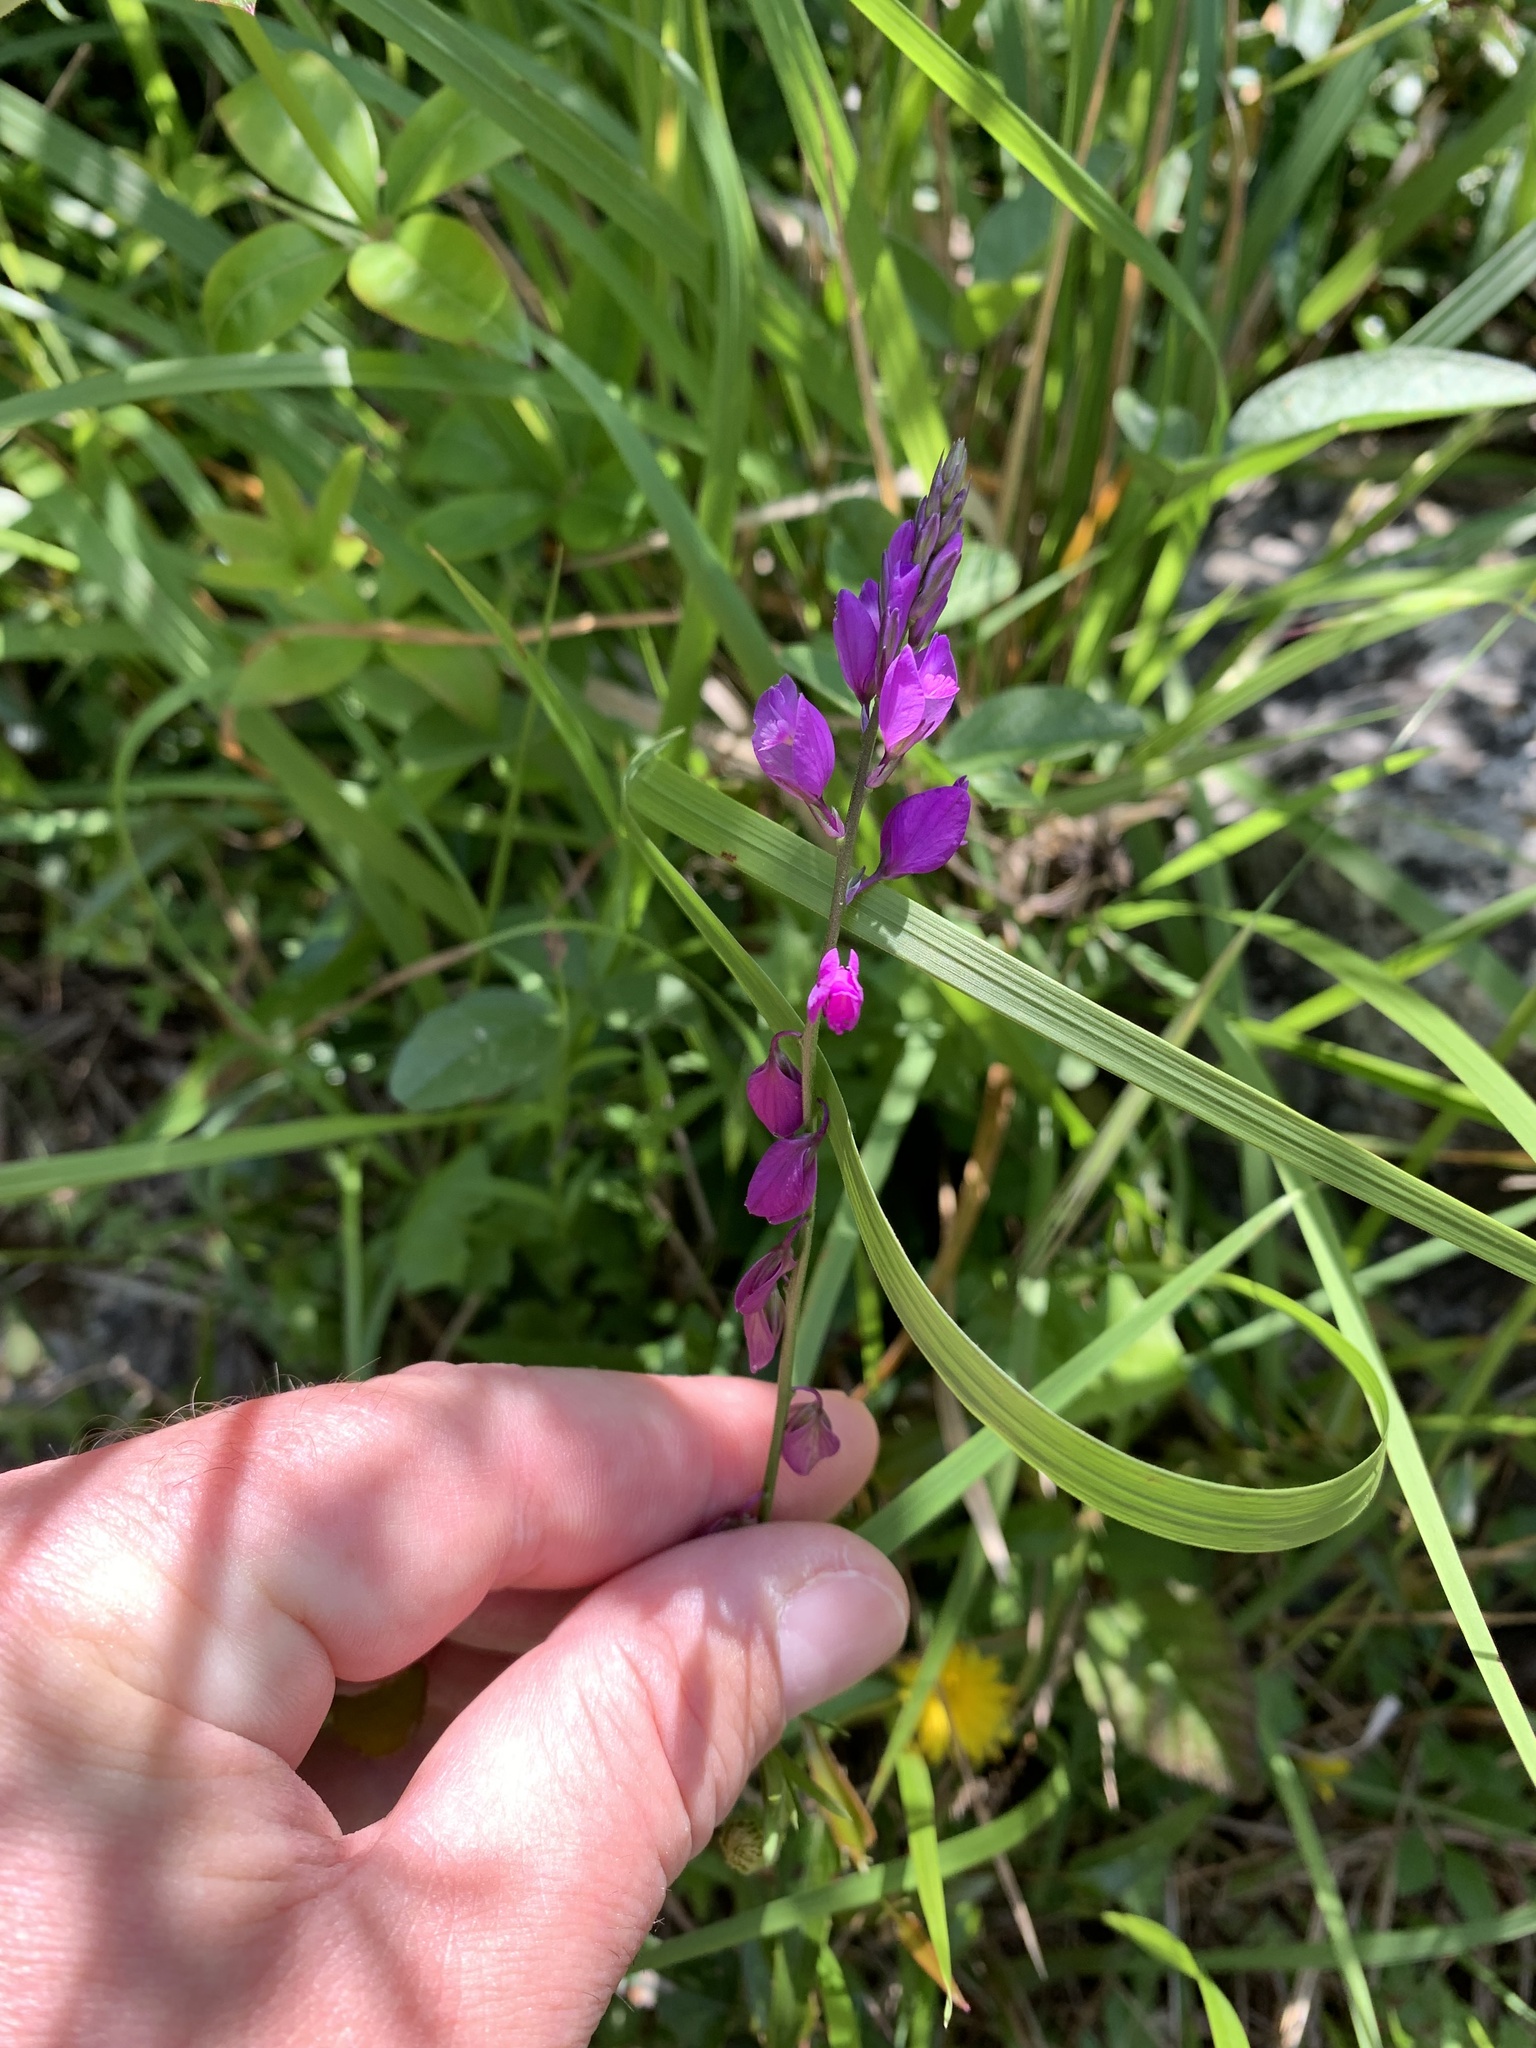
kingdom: Plantae
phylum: Tracheophyta
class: Magnoliopsida
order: Fabales
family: Polygalaceae
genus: Polygala
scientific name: Polygala nicaeensis
